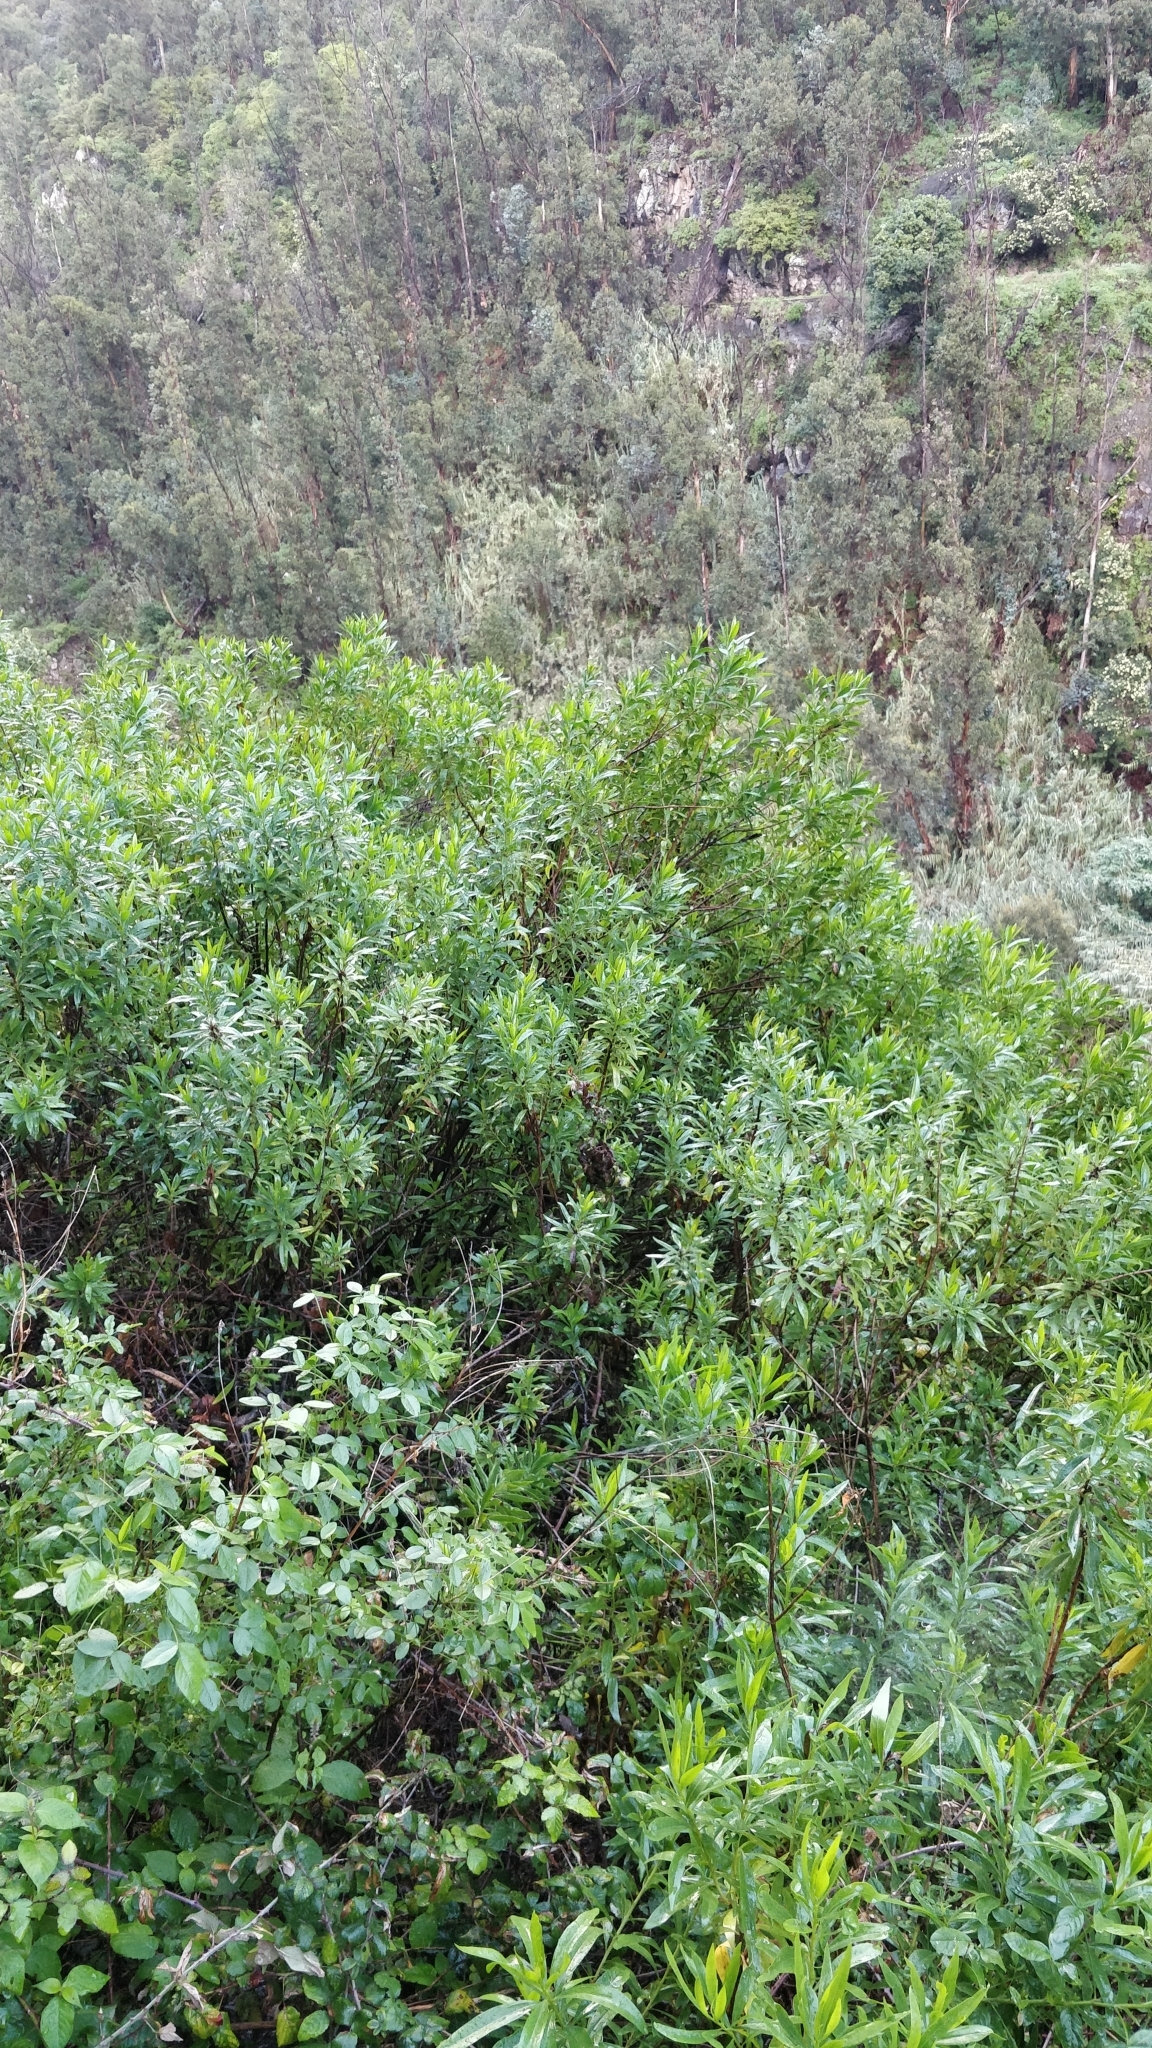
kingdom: Plantae
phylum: Tracheophyta
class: Magnoliopsida
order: Lamiales
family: Plantaginaceae
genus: Globularia
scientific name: Globularia salicina
